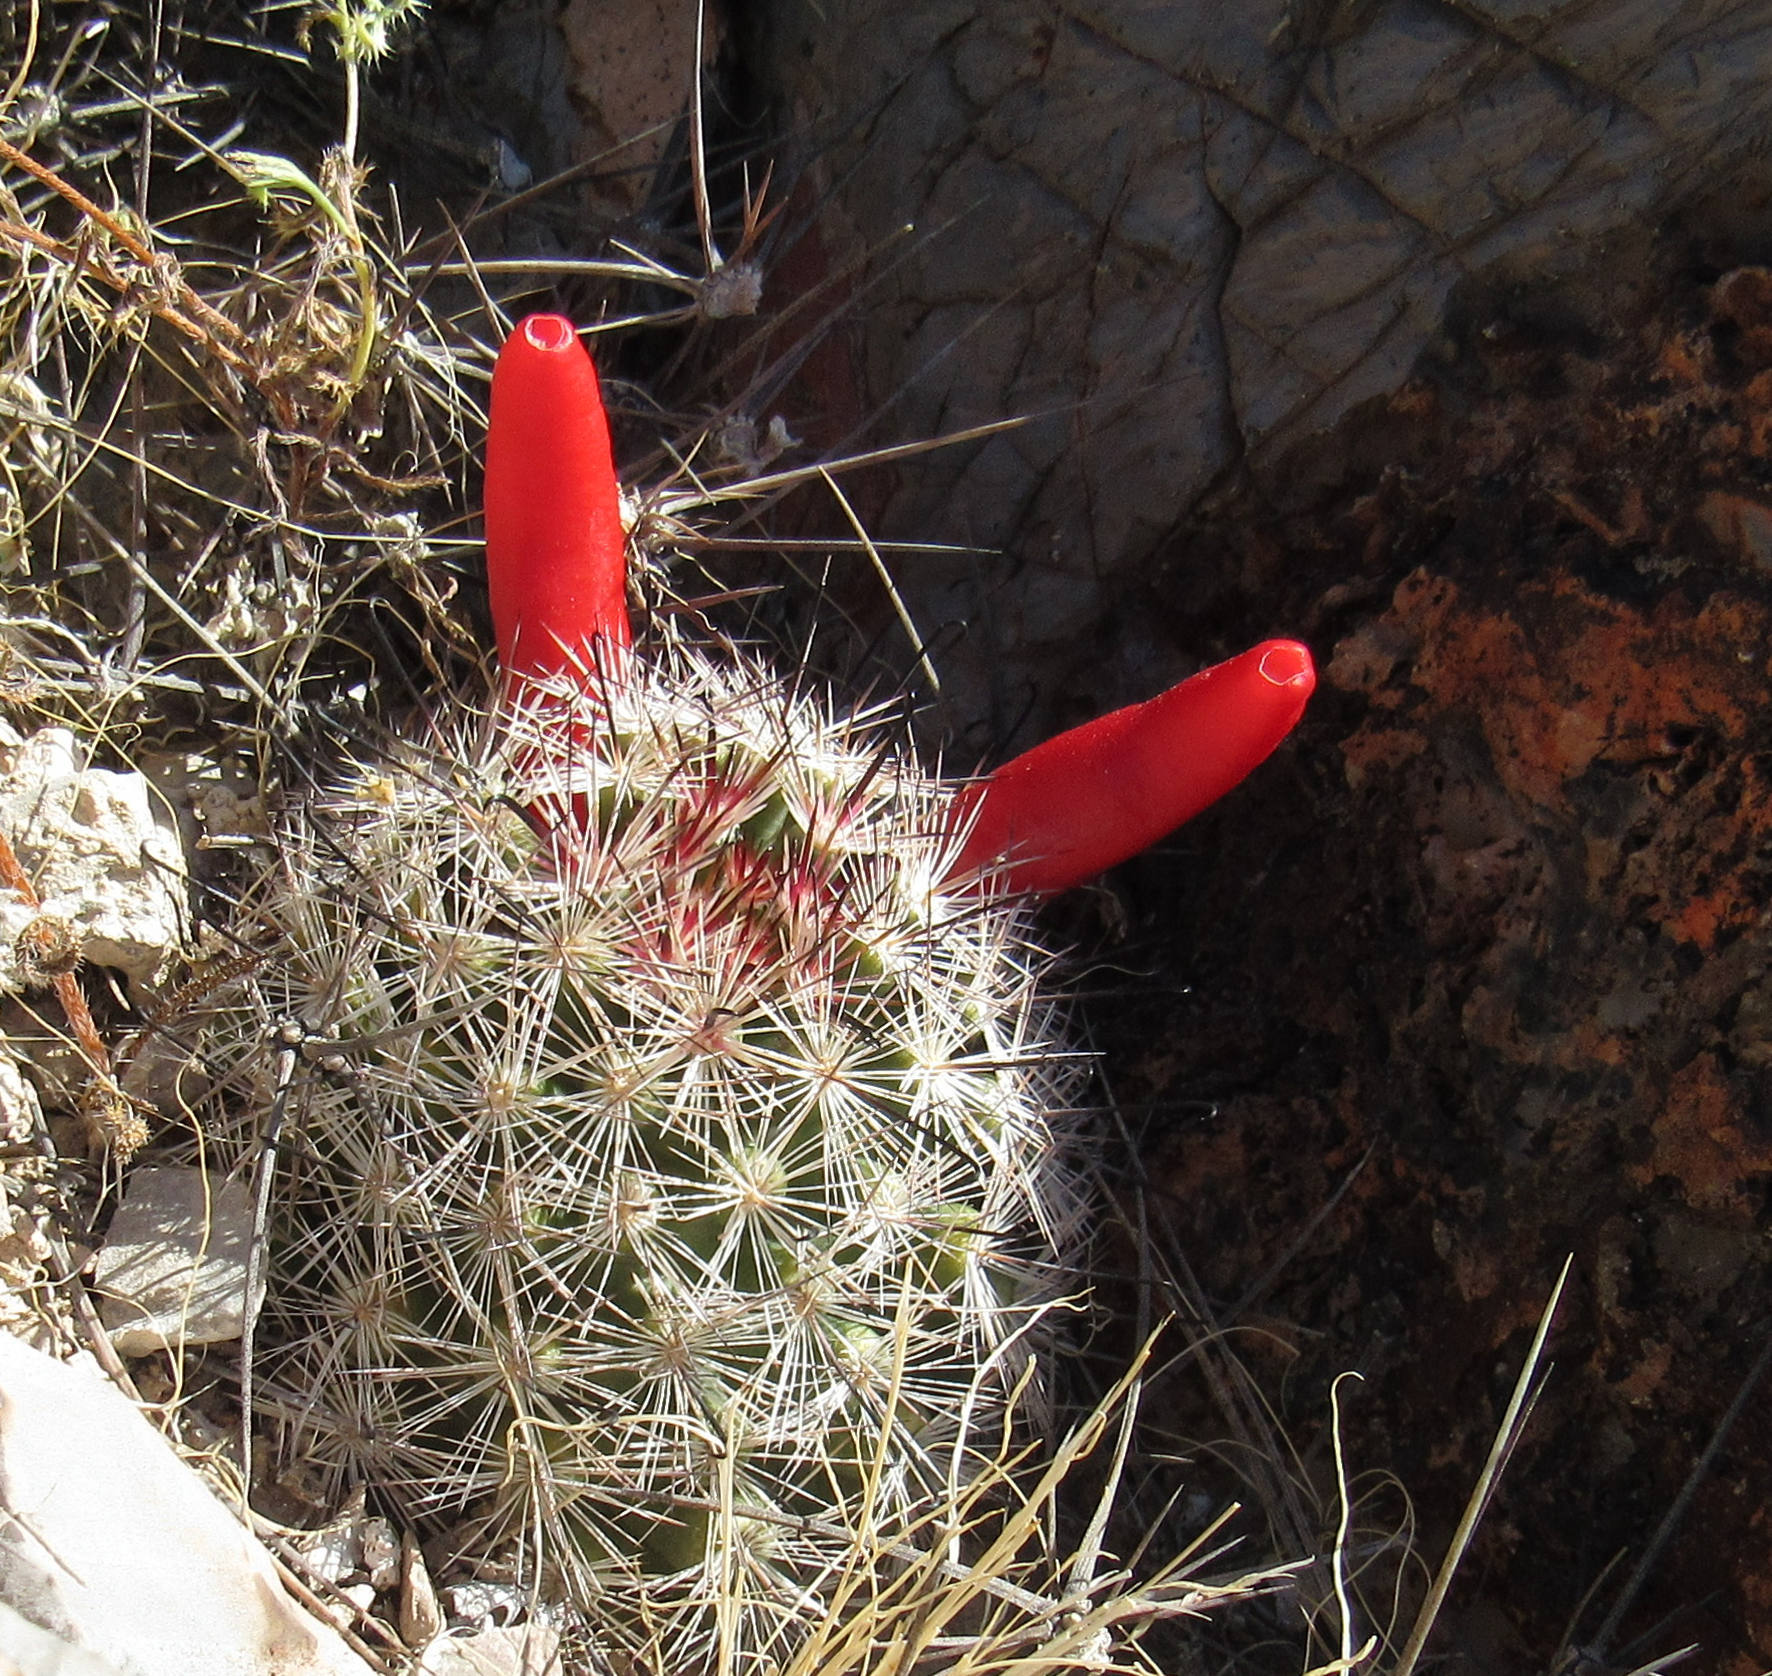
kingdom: Plantae
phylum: Tracheophyta
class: Magnoliopsida
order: Caryophyllales
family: Cactaceae
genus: Cochemiea
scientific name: Cochemiea tetrancistra
